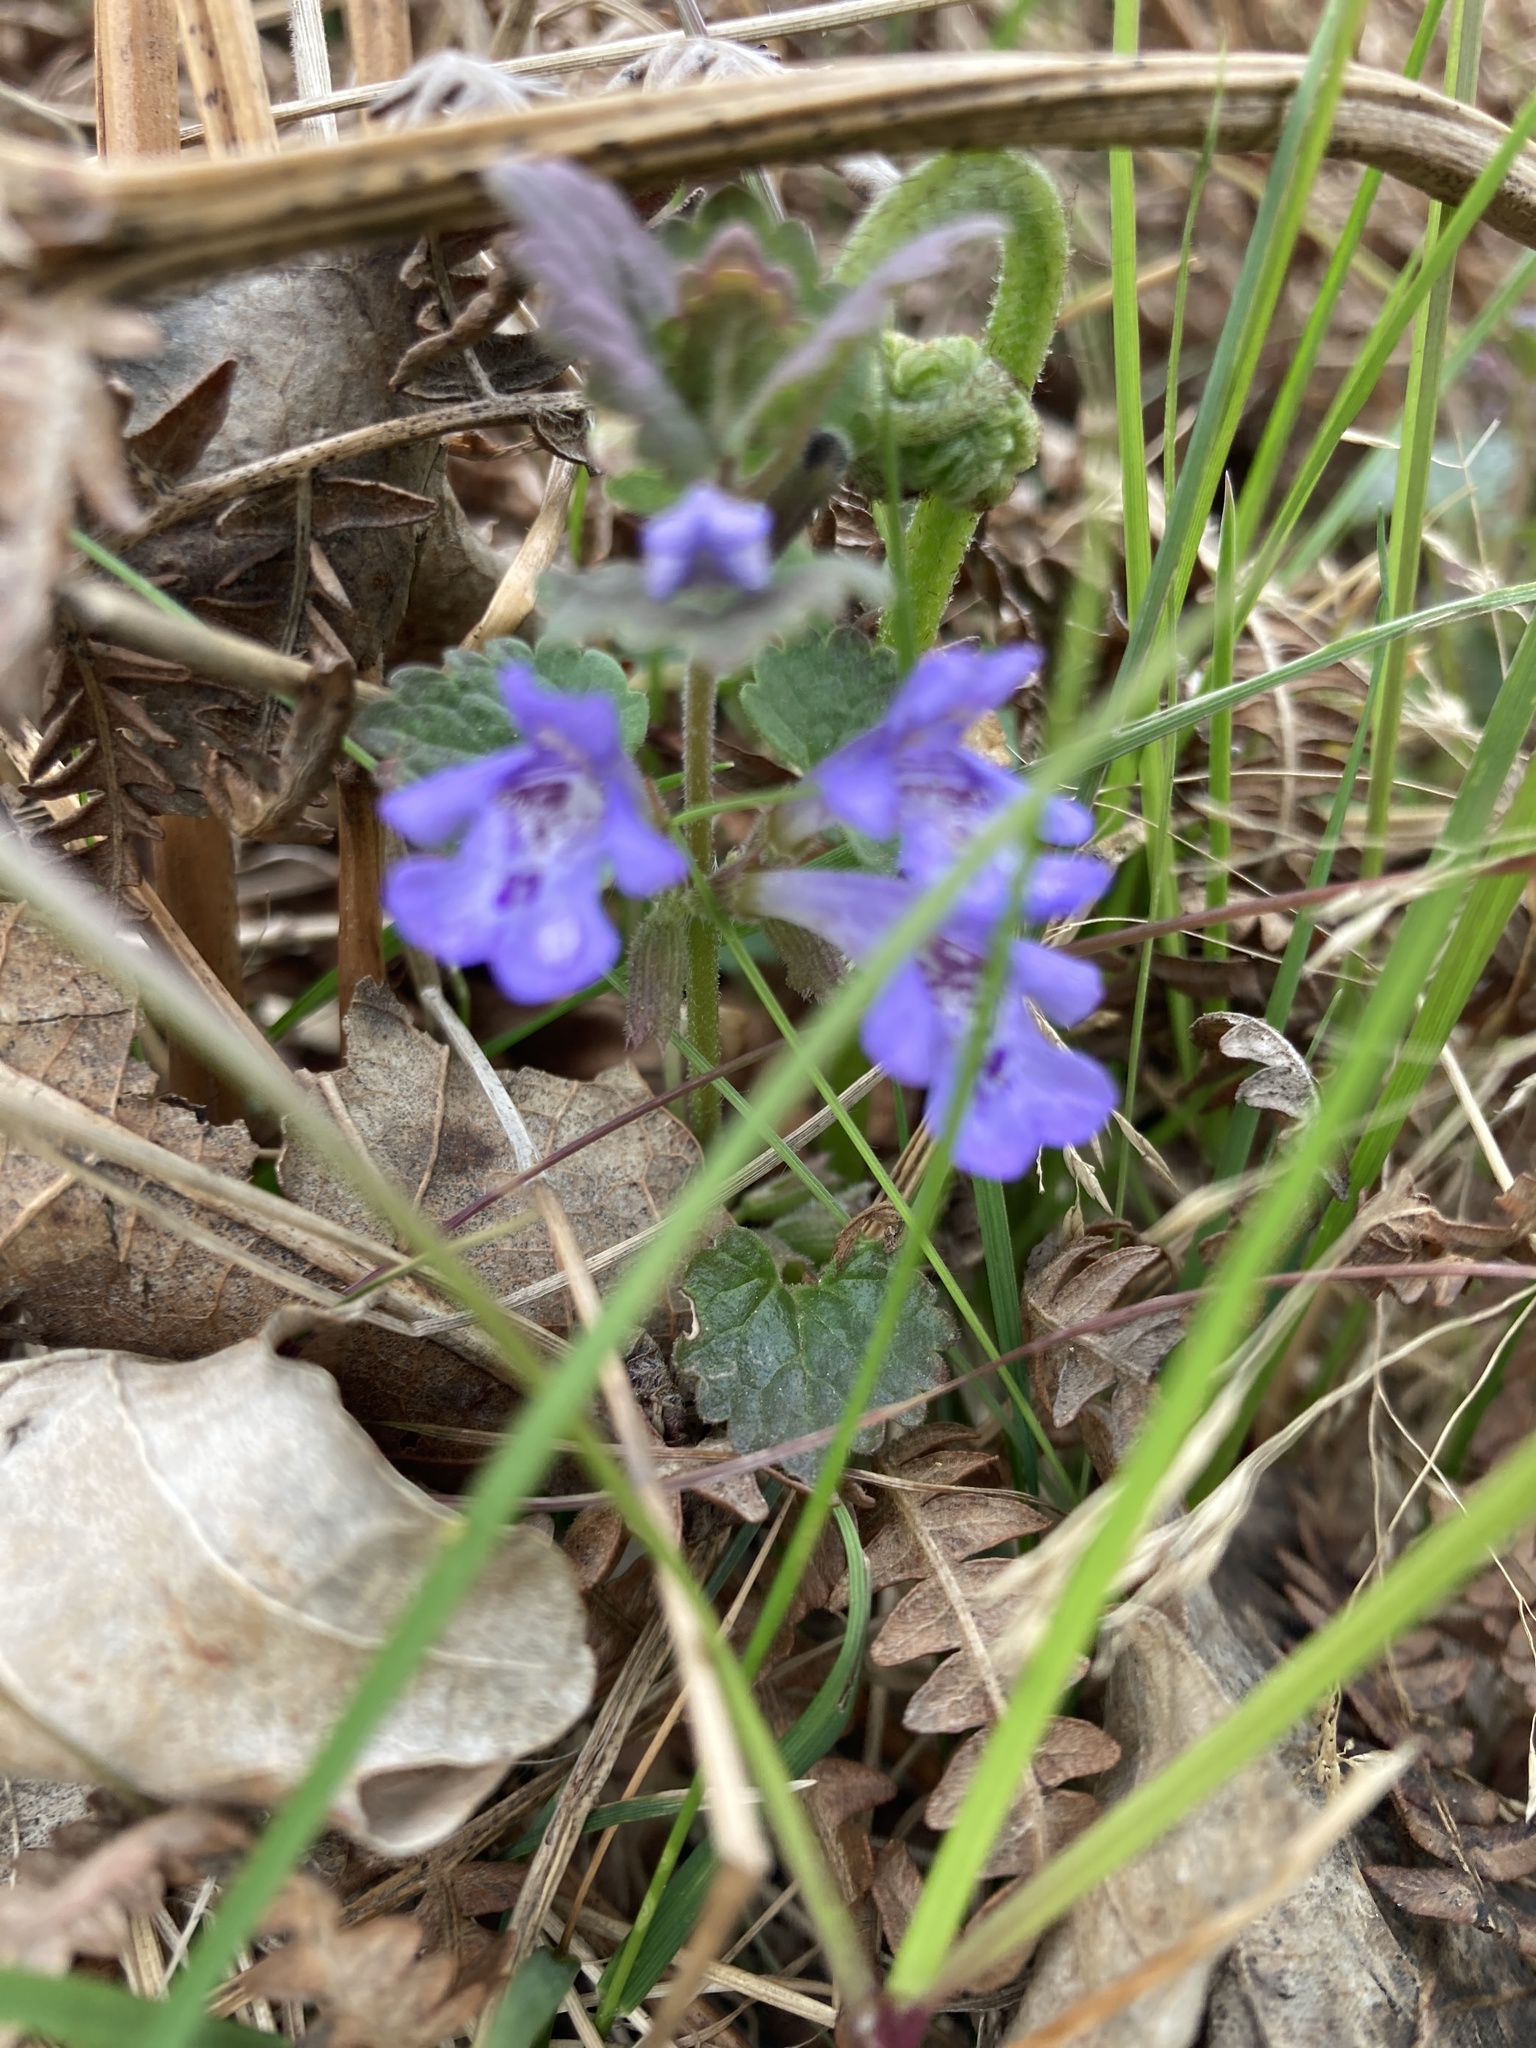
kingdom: Plantae
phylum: Tracheophyta
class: Magnoliopsida
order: Lamiales
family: Lamiaceae
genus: Glechoma
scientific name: Glechoma hederacea
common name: Ground ivy
